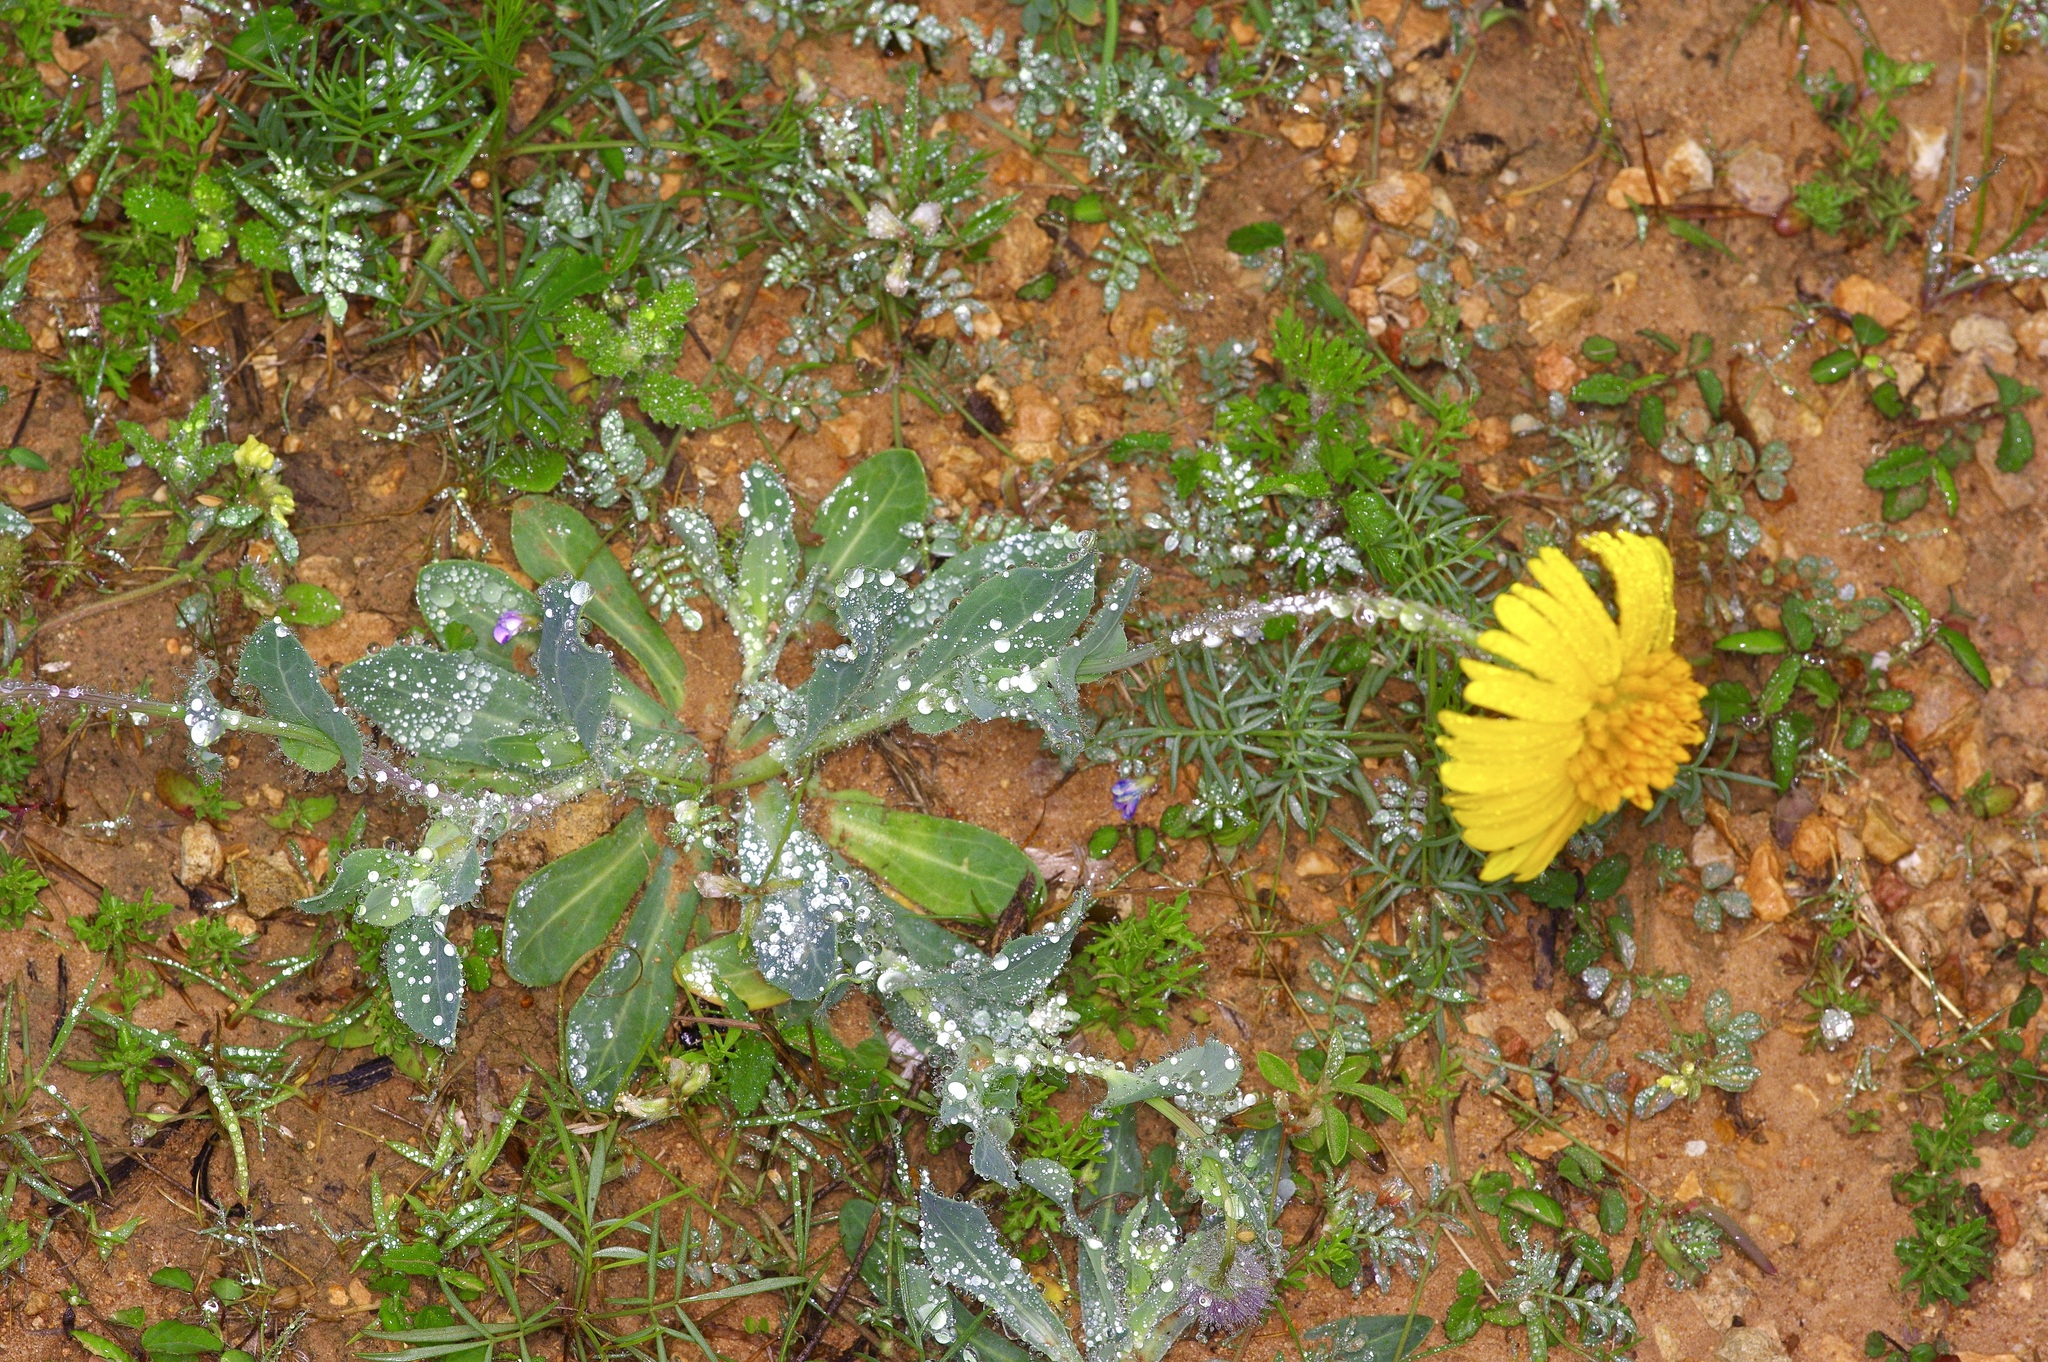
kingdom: Plantae
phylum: Tracheophyta
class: Magnoliopsida
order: Asterales
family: Asteraceae
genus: Amblyolepis
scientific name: Amblyolepis setigera
